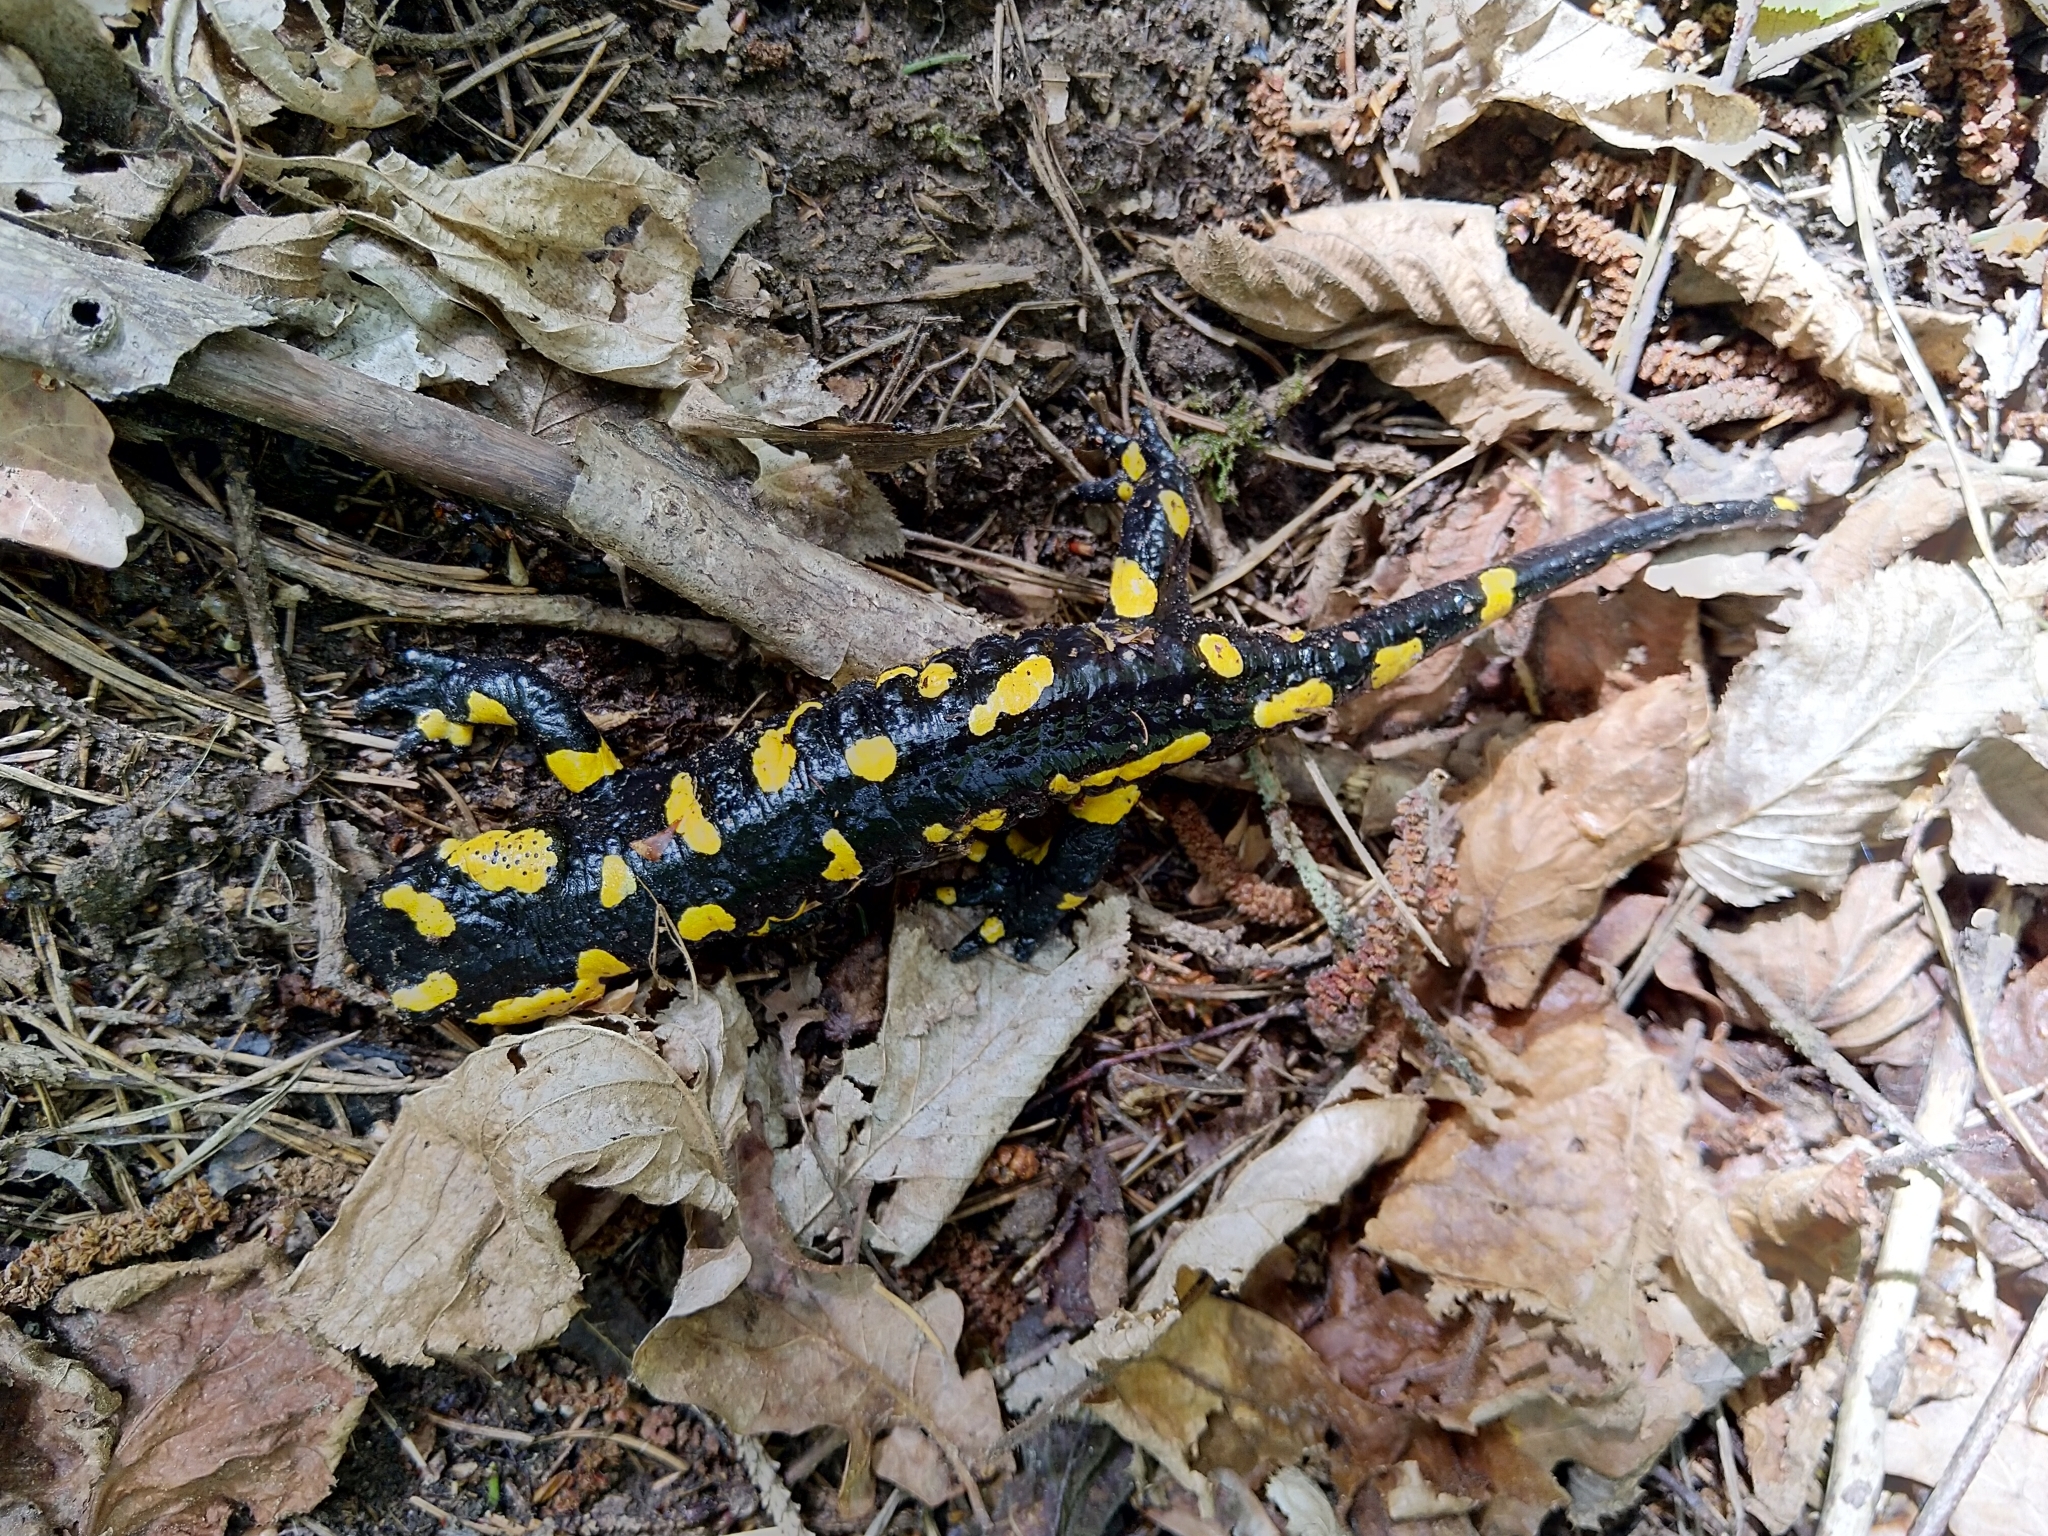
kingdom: Animalia
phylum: Chordata
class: Amphibia
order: Caudata
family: Salamandridae
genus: Salamandra
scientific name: Salamandra salamandra
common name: Fire salamander
